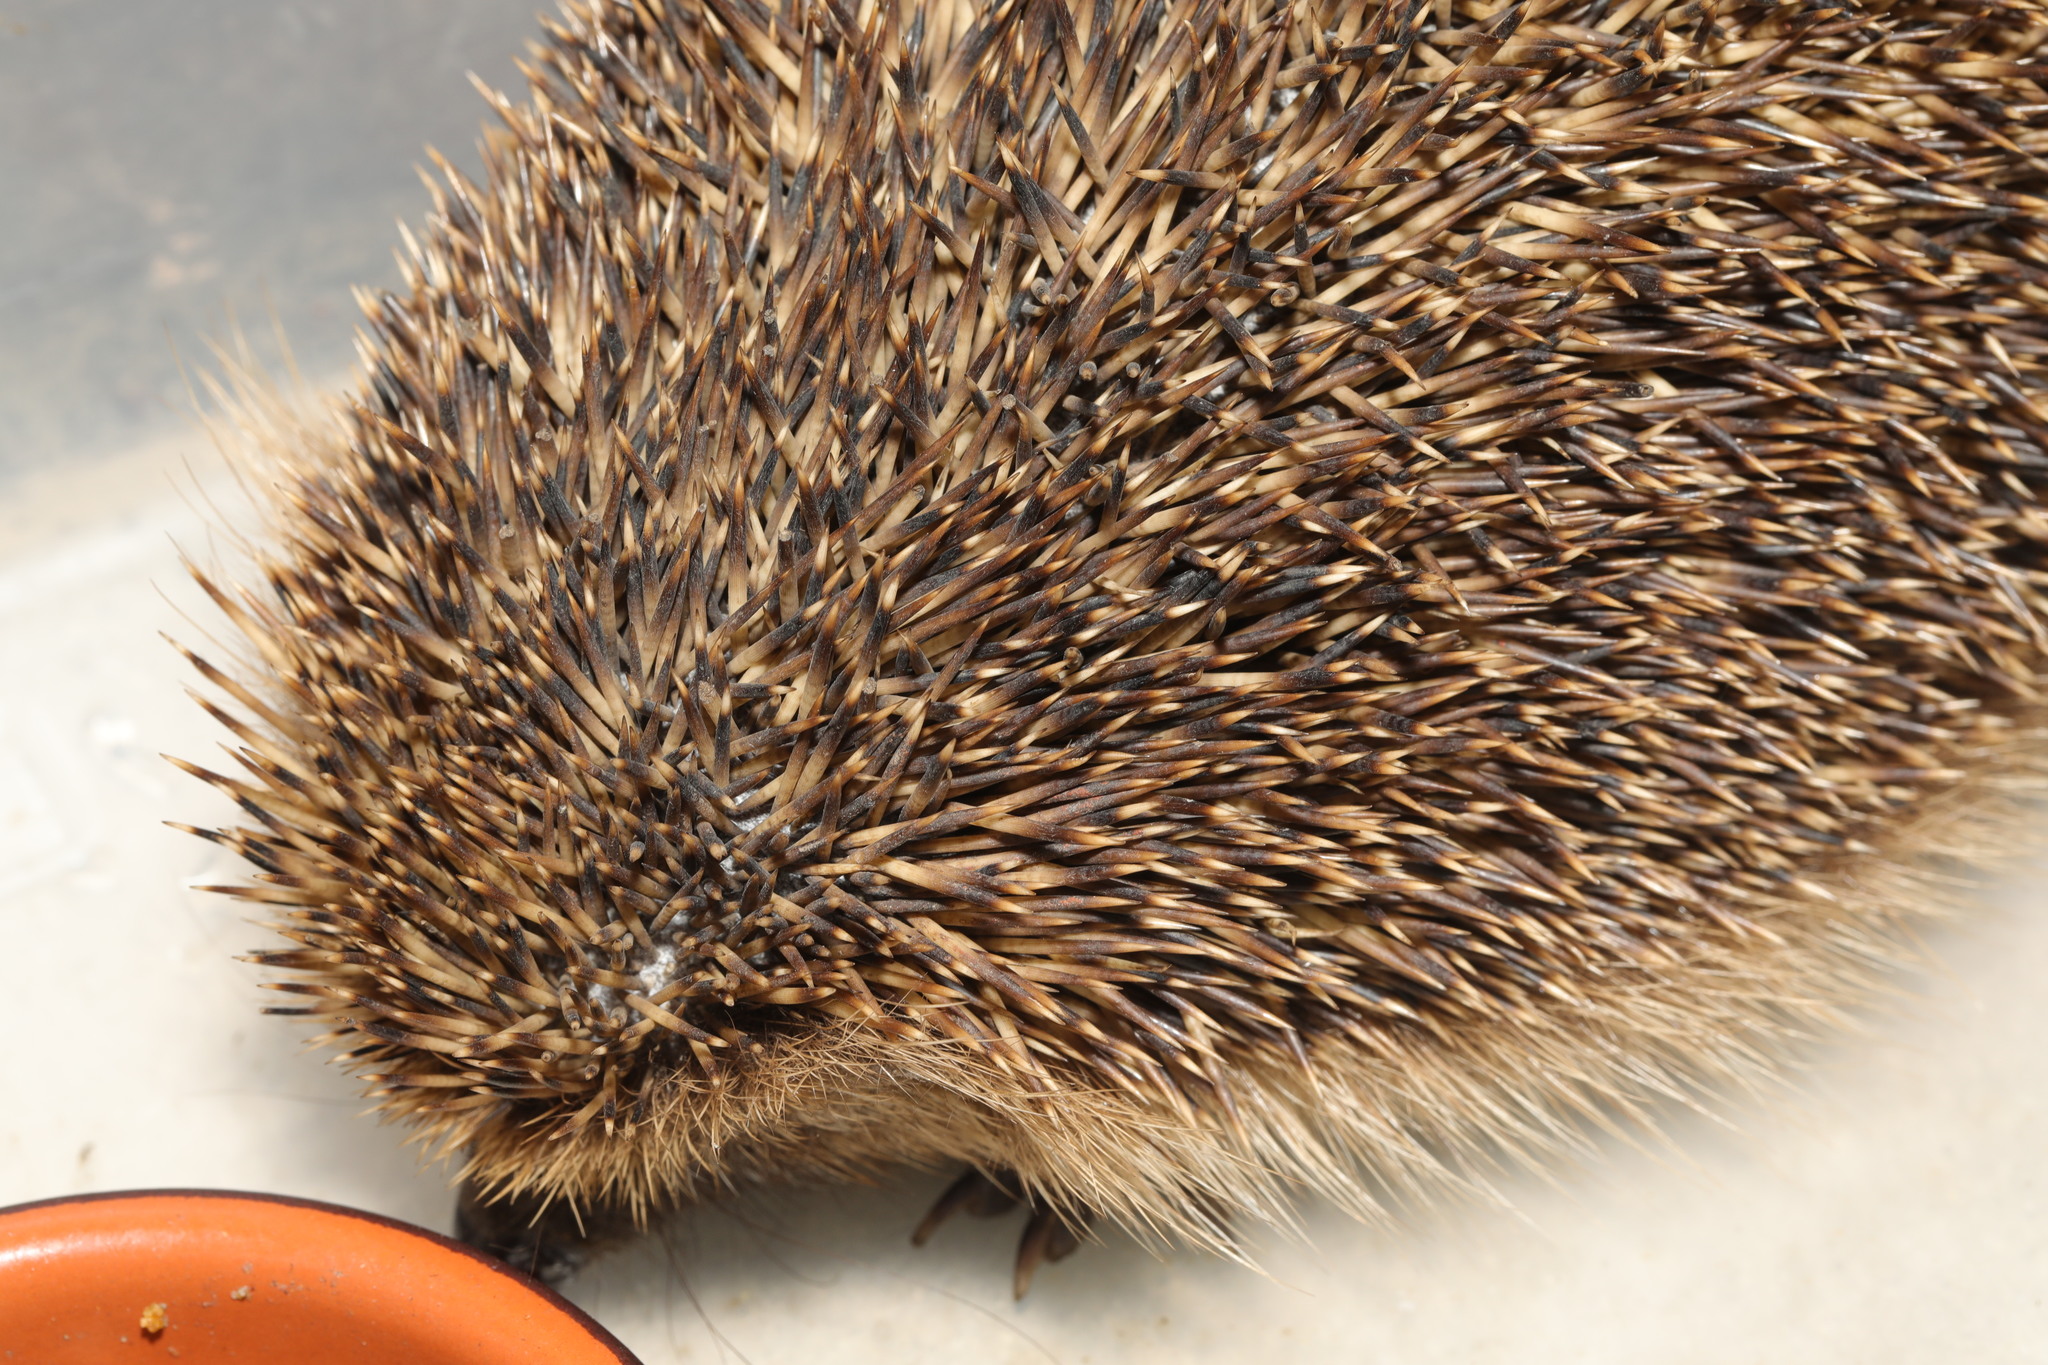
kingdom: Animalia
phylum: Chordata
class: Mammalia
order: Erinaceomorpha
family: Erinaceidae
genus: Erinaceus
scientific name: Erinaceus europaeus
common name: West european hedgehog
